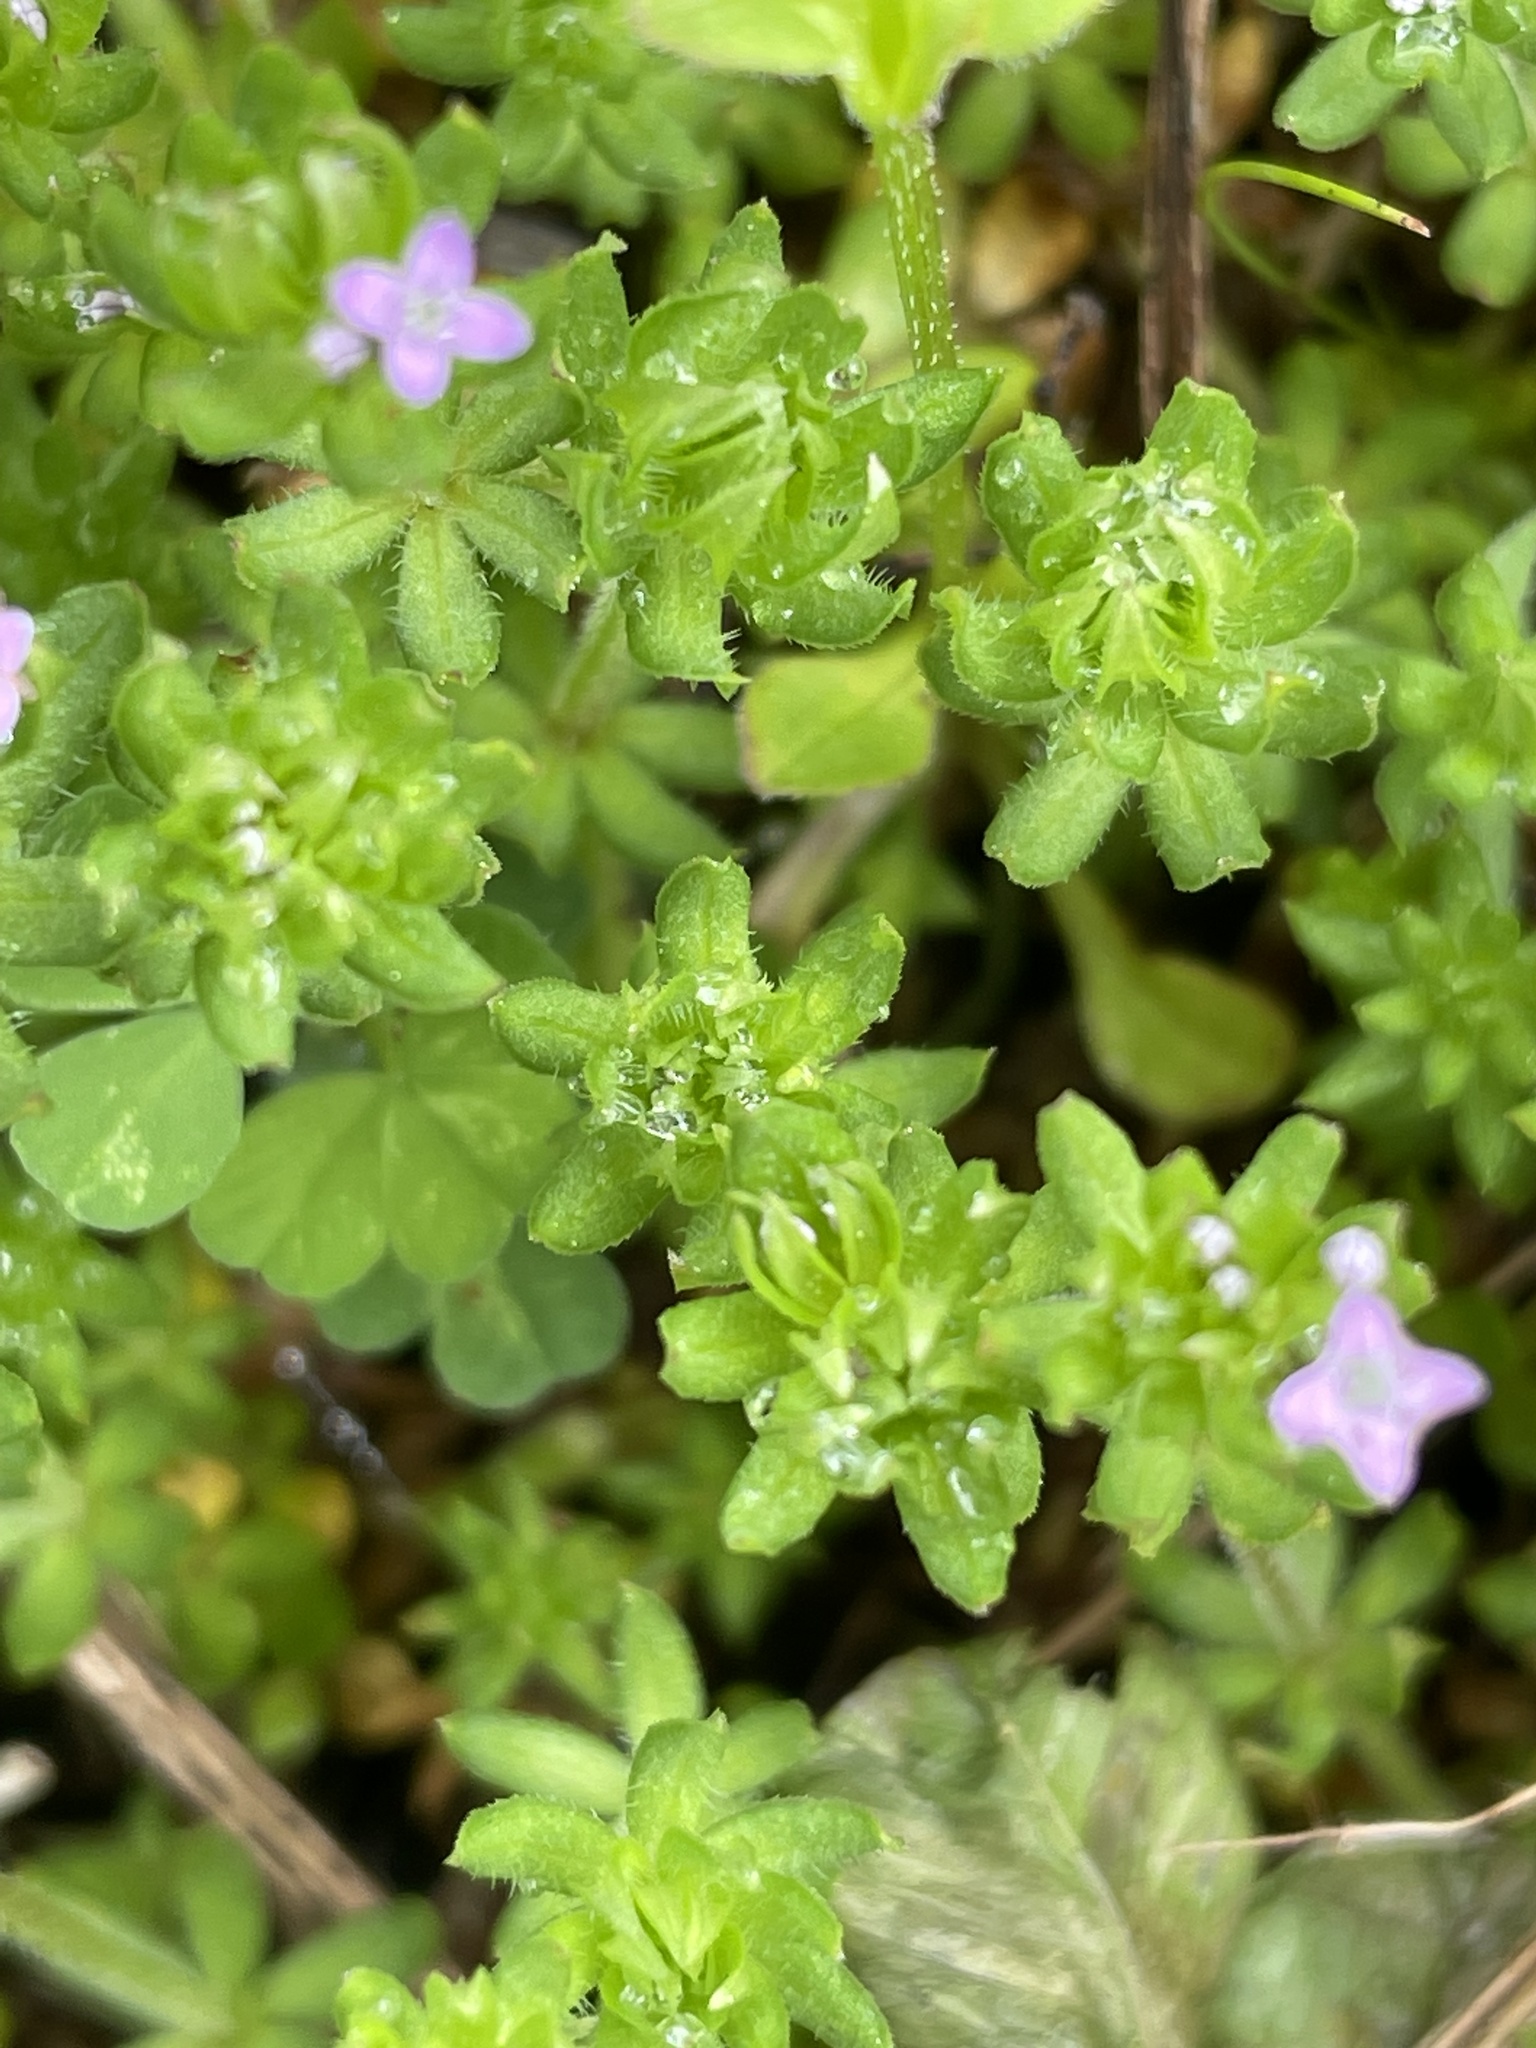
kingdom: Plantae
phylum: Tracheophyta
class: Magnoliopsida
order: Gentianales
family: Rubiaceae
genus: Sherardia
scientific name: Sherardia arvensis
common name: Field madder
